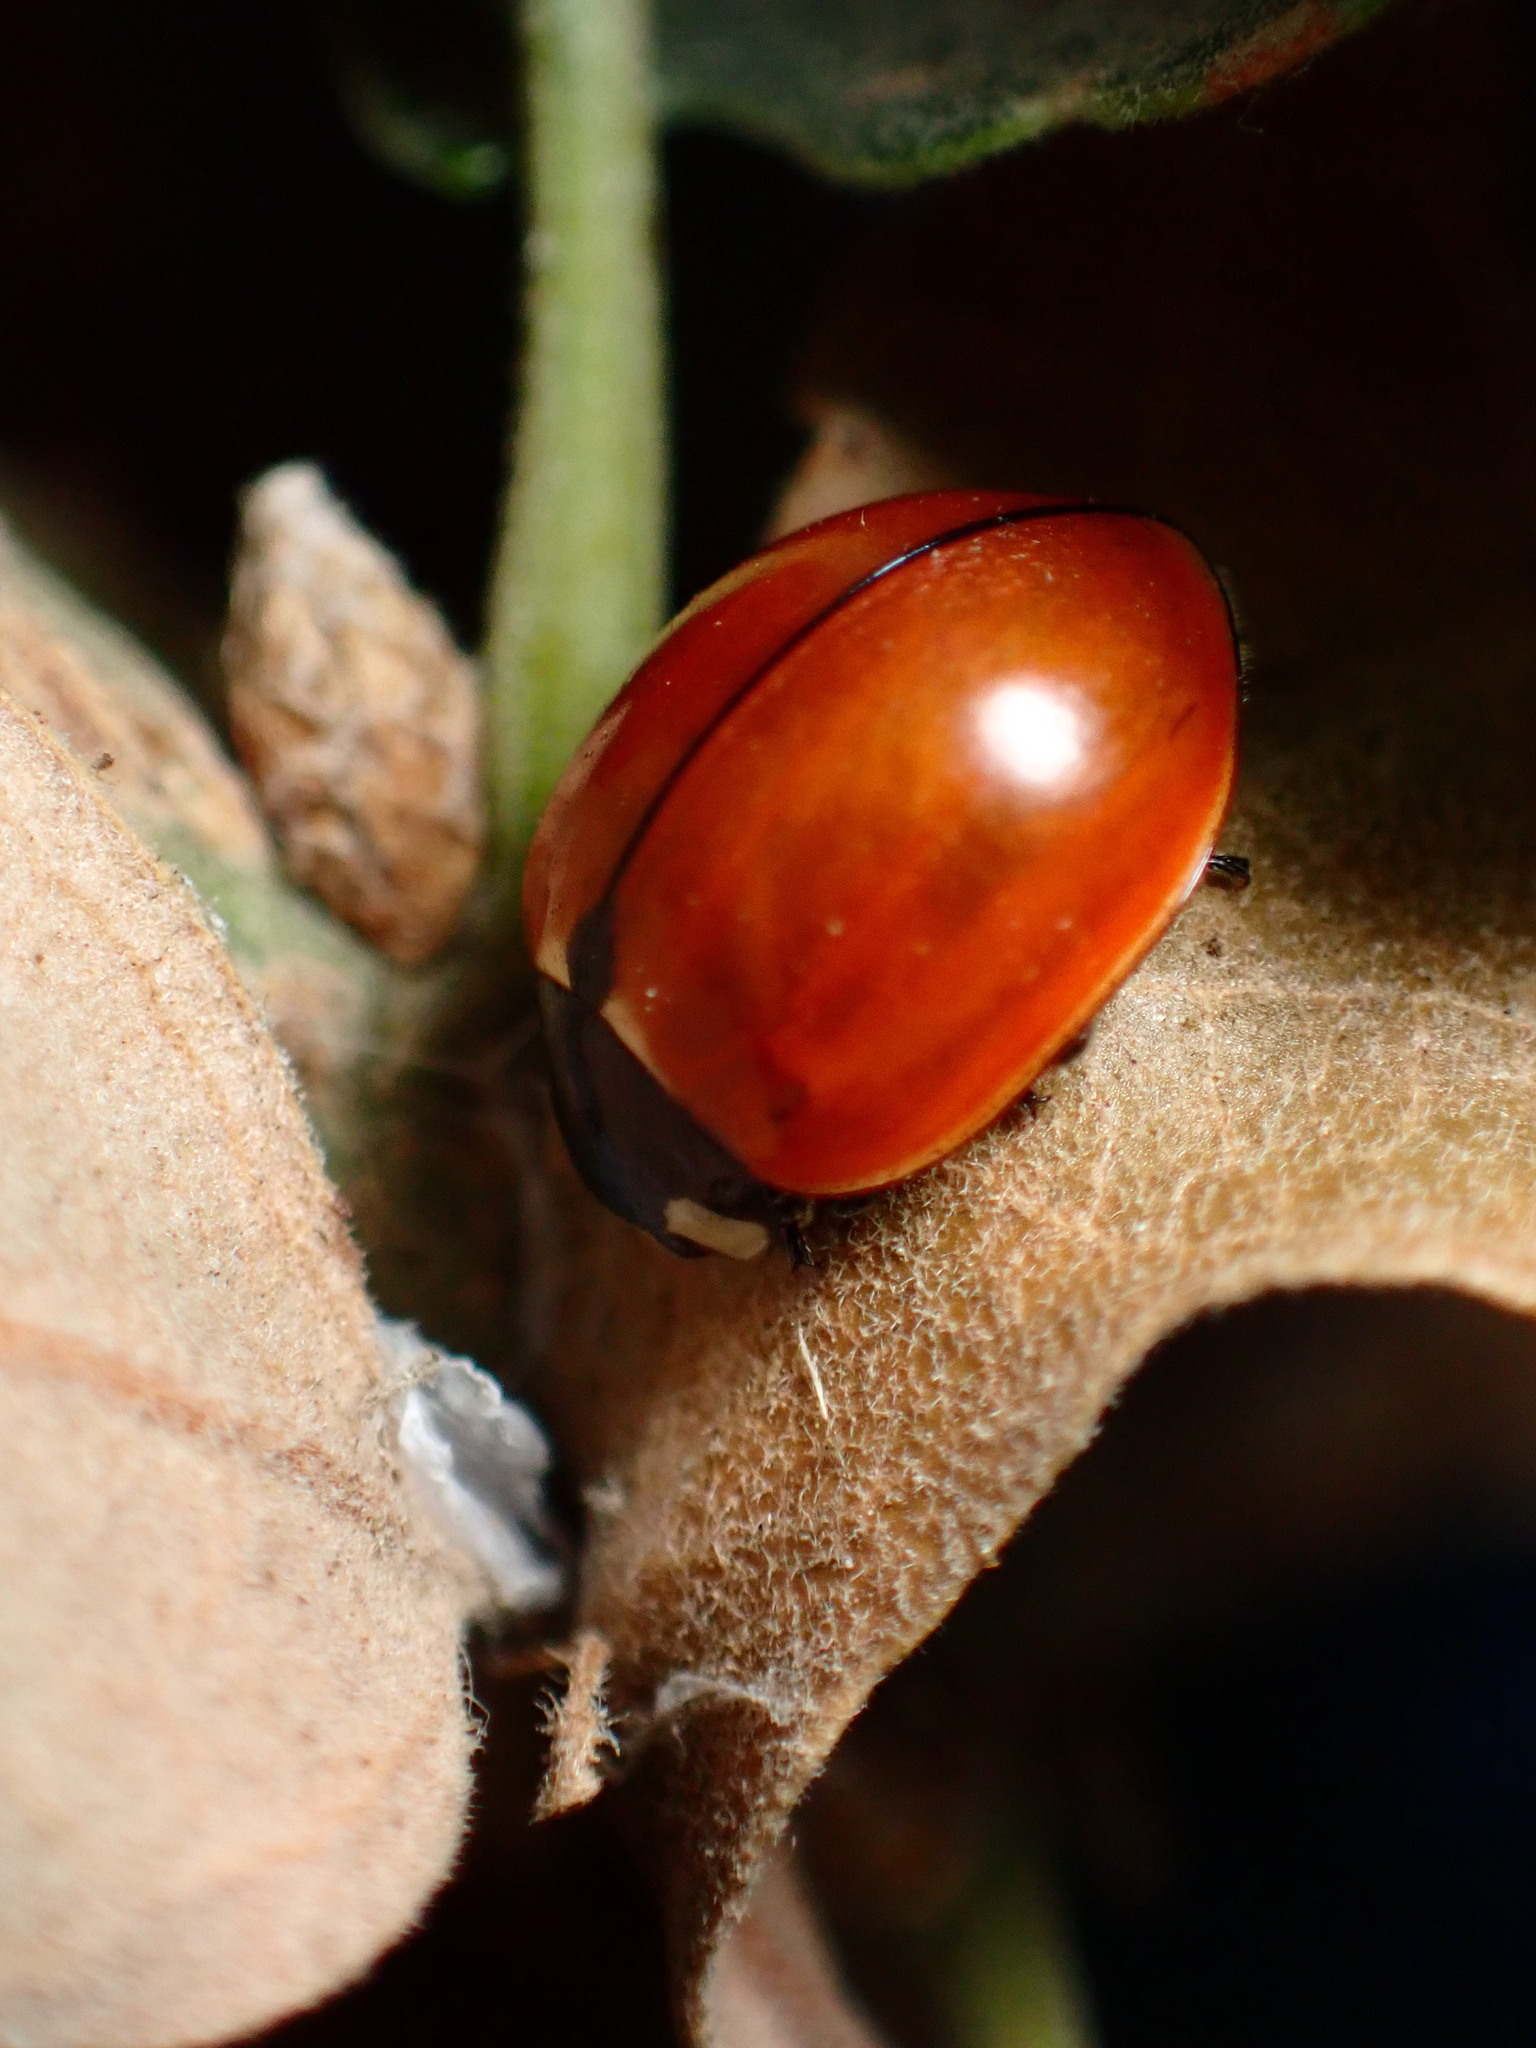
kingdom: Animalia
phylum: Arthropoda
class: Insecta
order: Coleoptera
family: Coccinellidae
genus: Coccinella
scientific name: Coccinella californica
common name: Lady beetle
